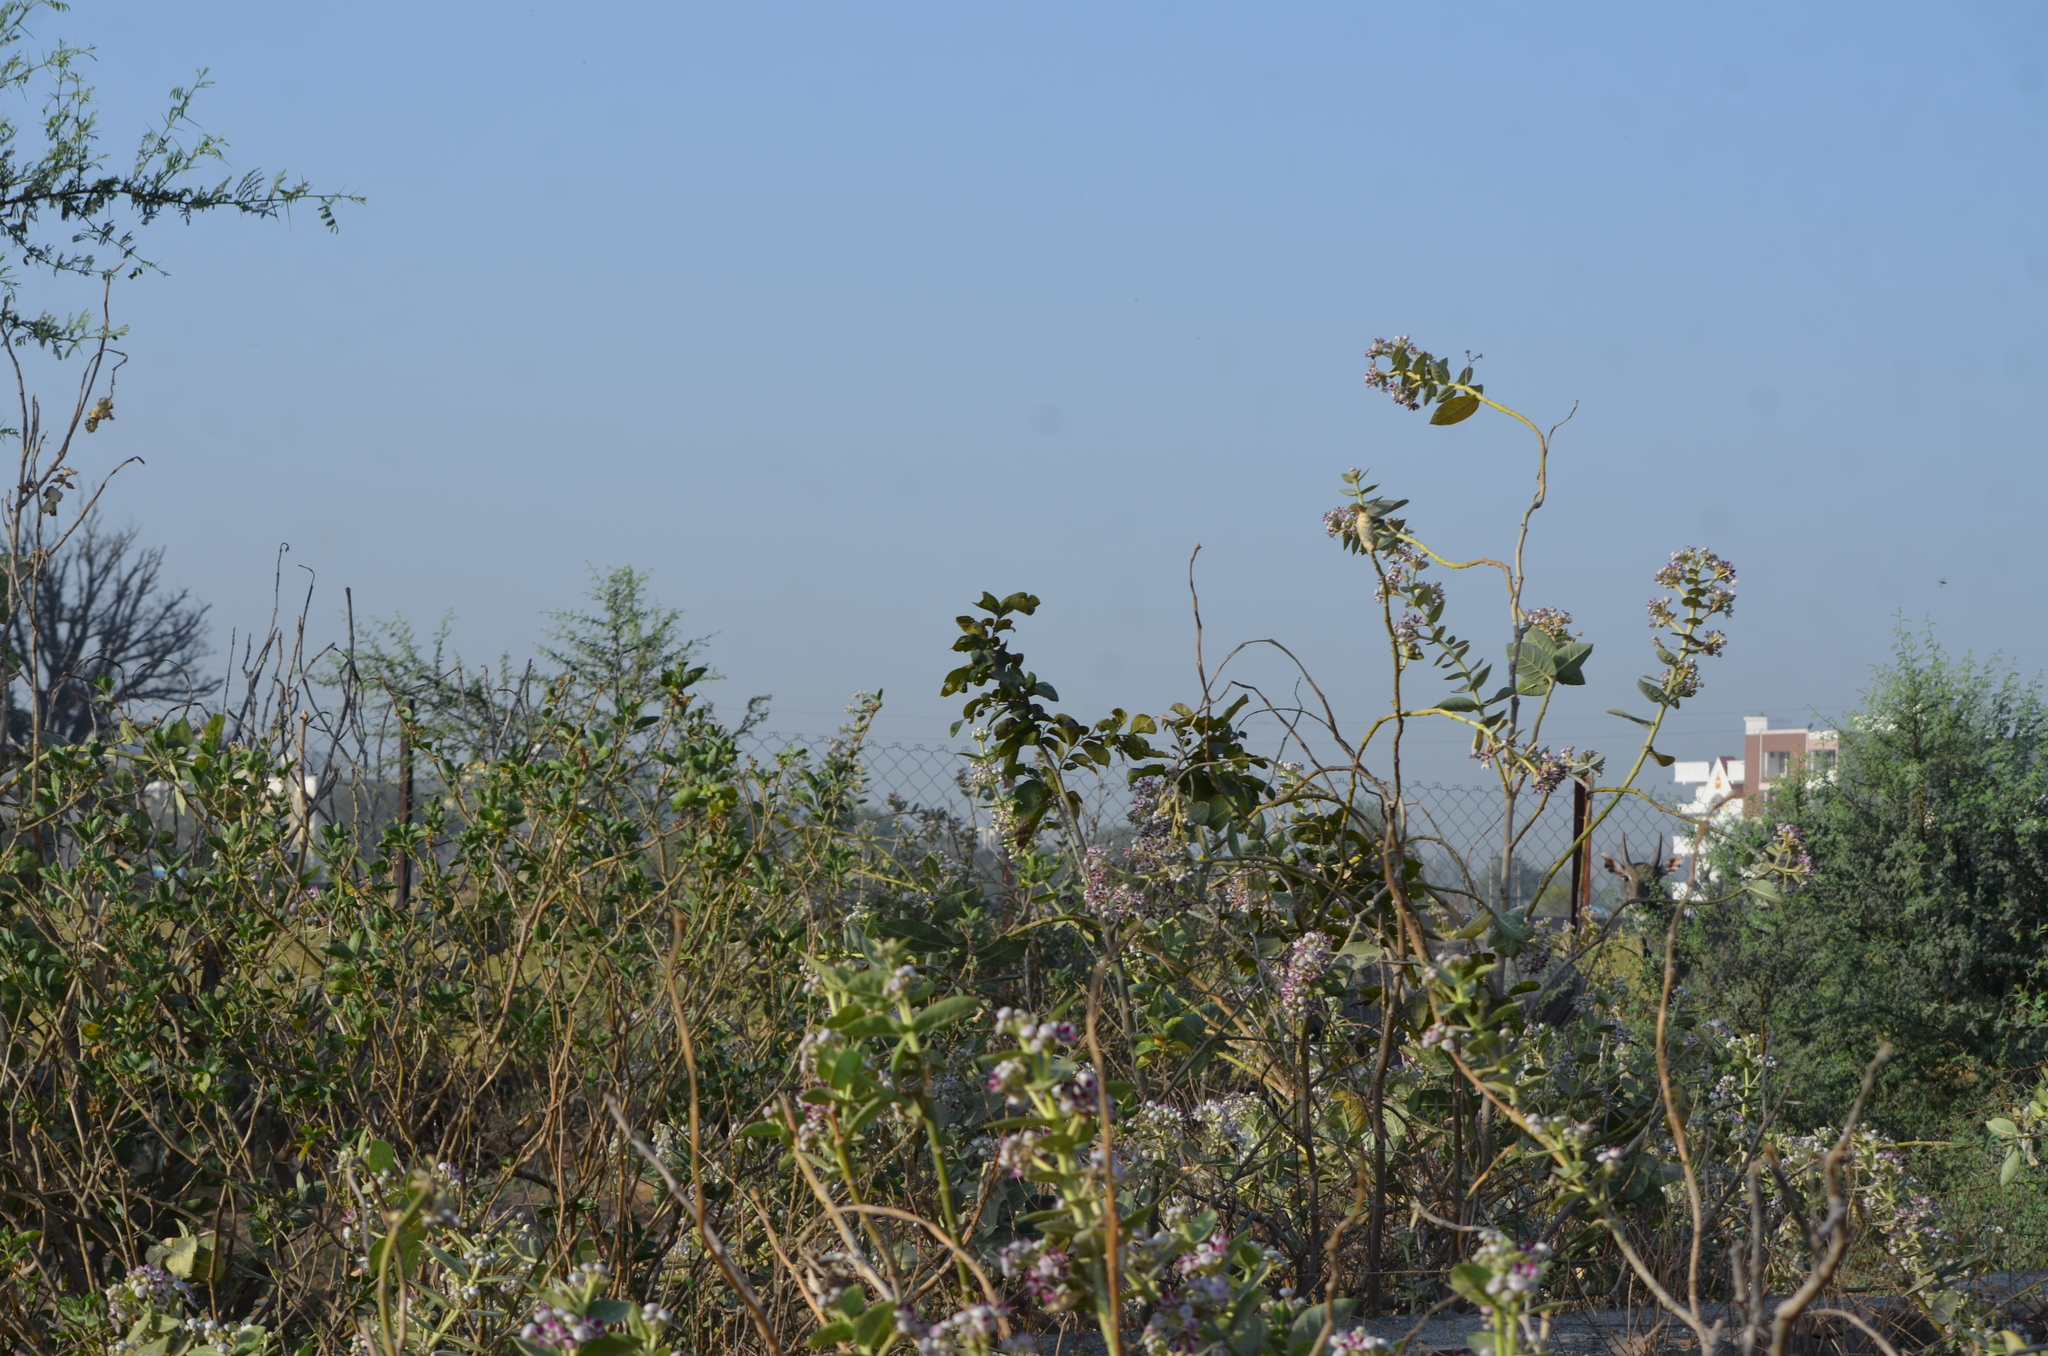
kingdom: Plantae
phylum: Tracheophyta
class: Magnoliopsida
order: Gentianales
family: Apocynaceae
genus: Calotropis
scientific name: Calotropis procera
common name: Roostertree
